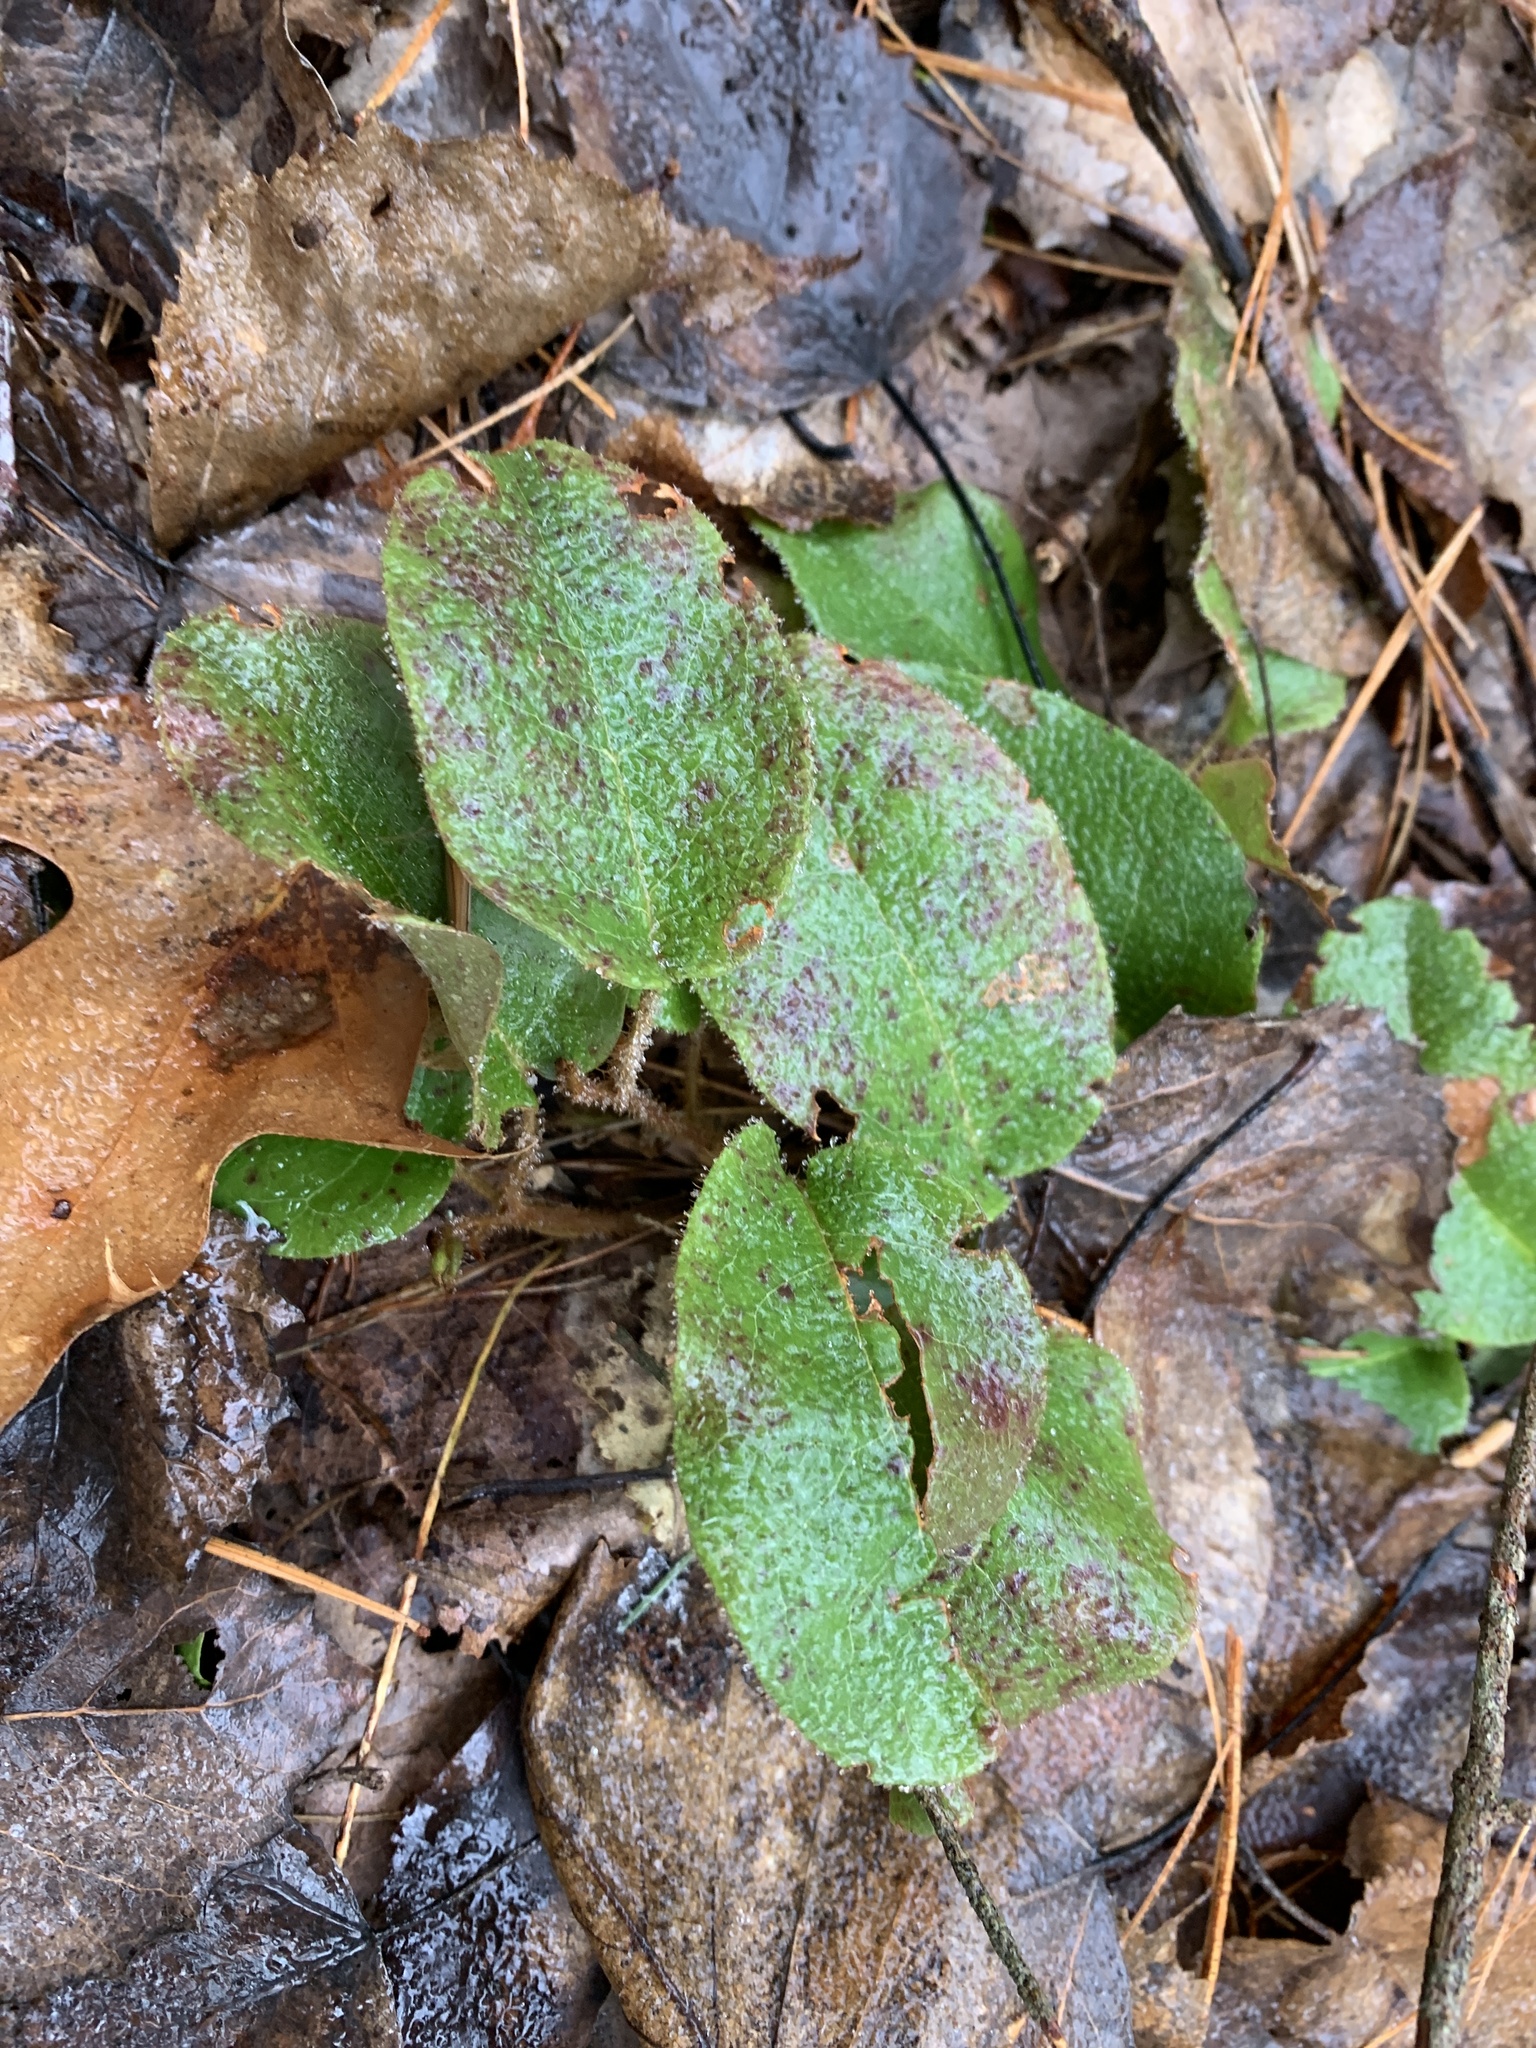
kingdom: Plantae
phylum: Tracheophyta
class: Magnoliopsida
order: Ericales
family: Ericaceae
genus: Epigaea
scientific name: Epigaea repens
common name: Gravelroot
